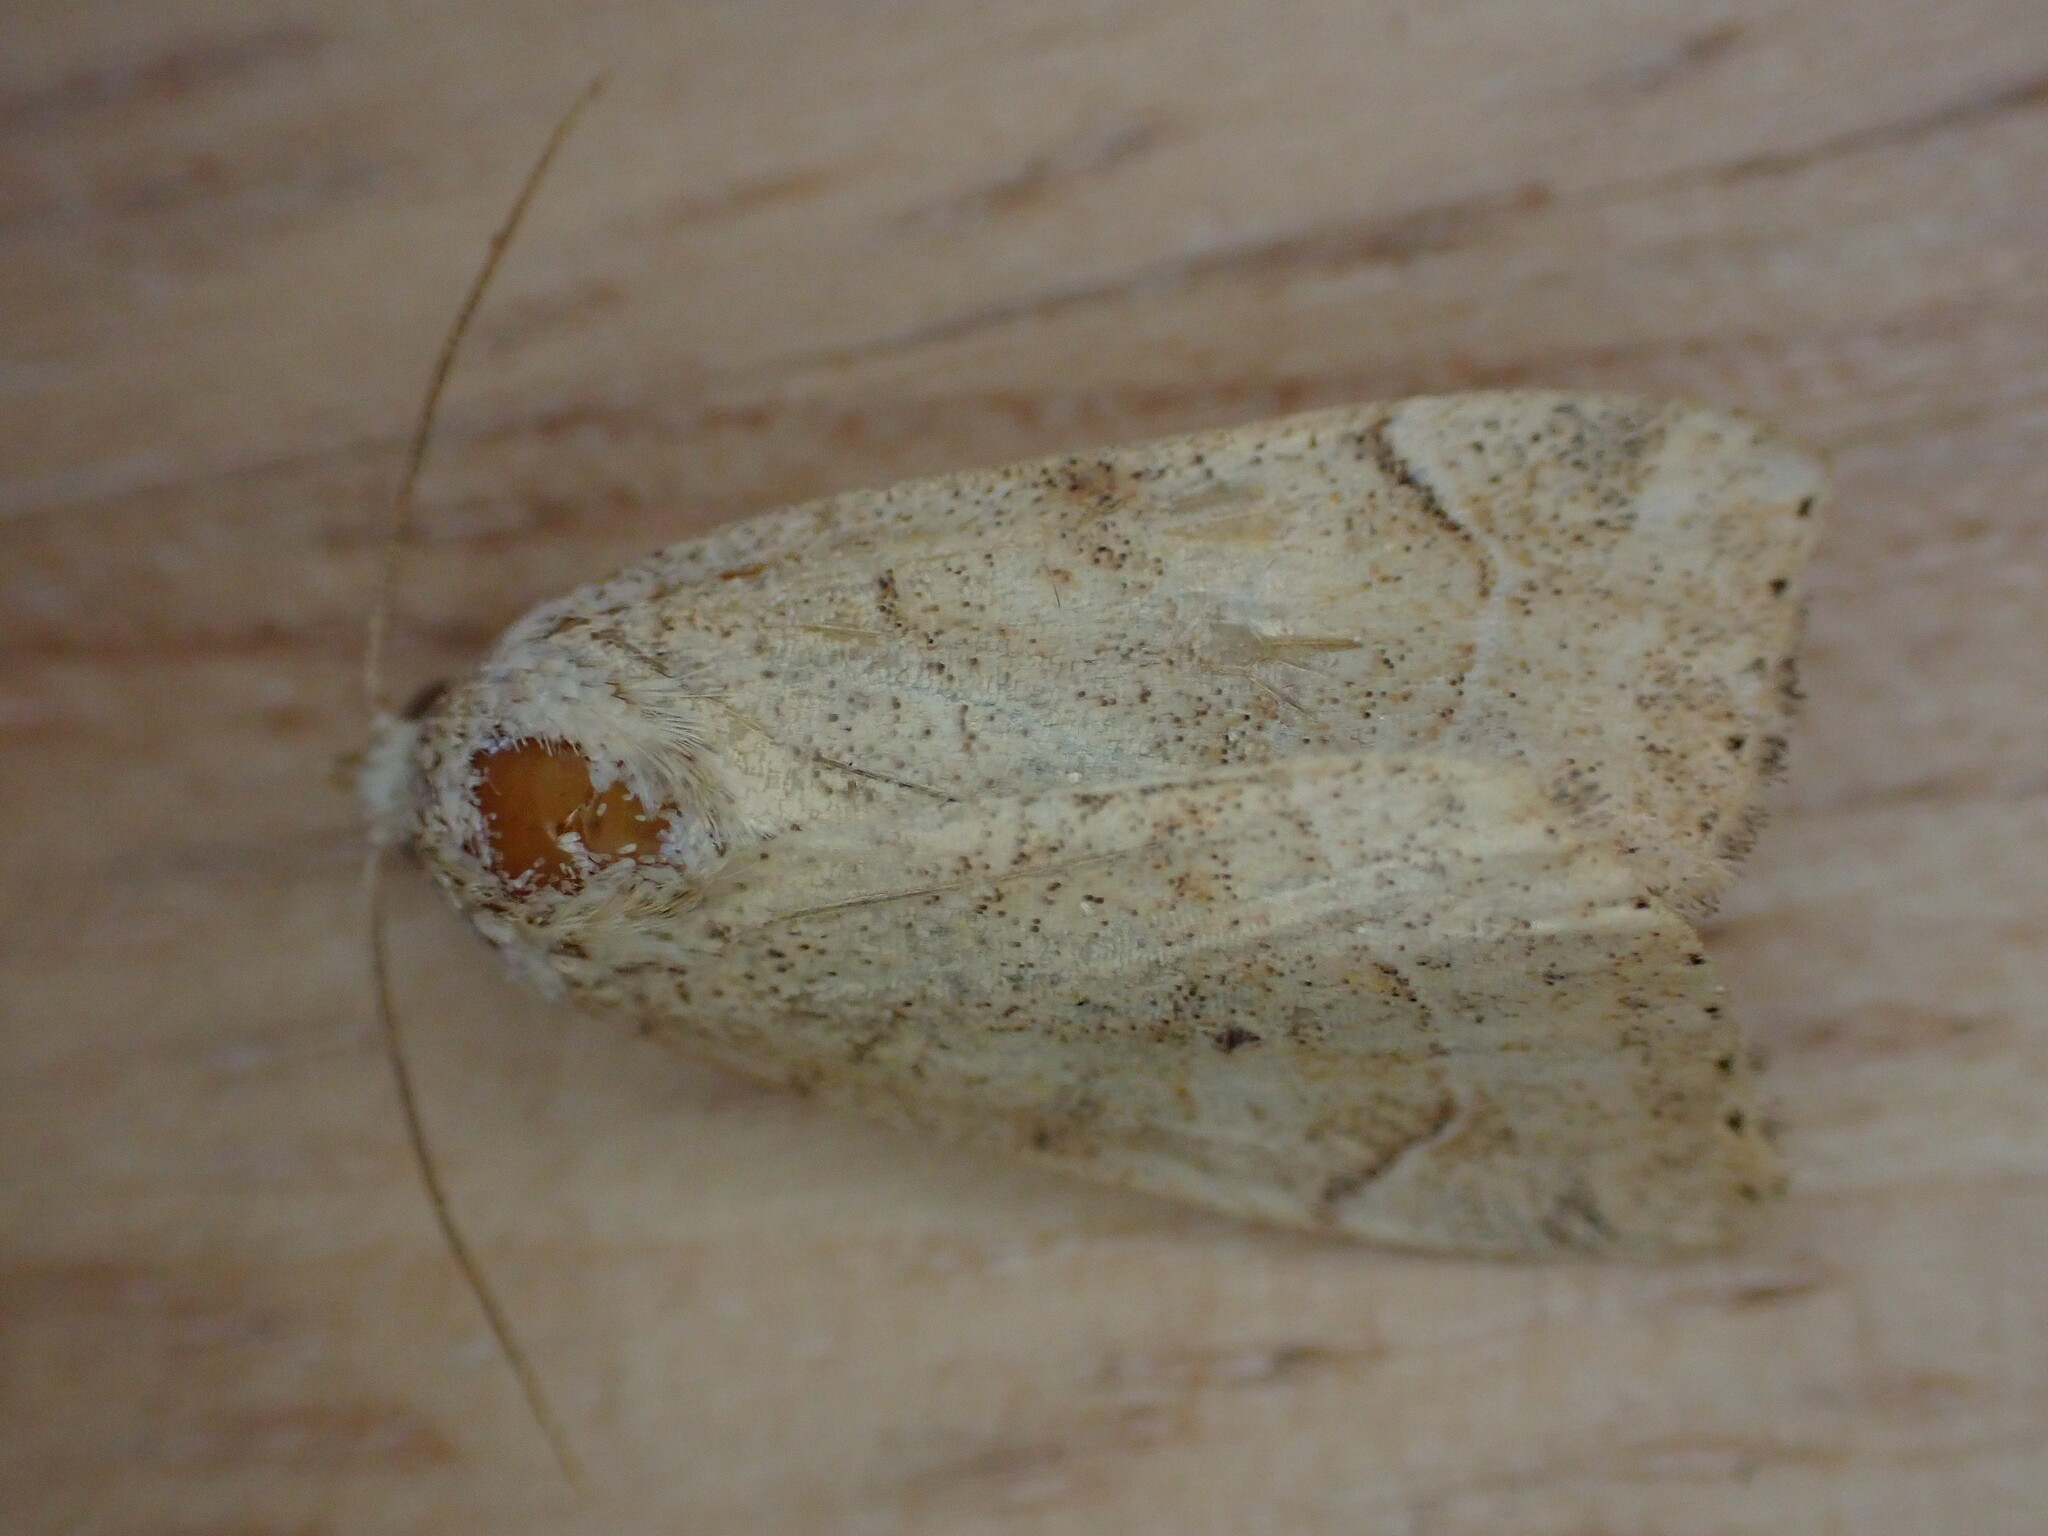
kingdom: Animalia
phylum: Arthropoda
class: Insecta
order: Lepidoptera
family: Noctuidae
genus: Cosmia
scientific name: Cosmia trapezina
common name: Dun-bar
